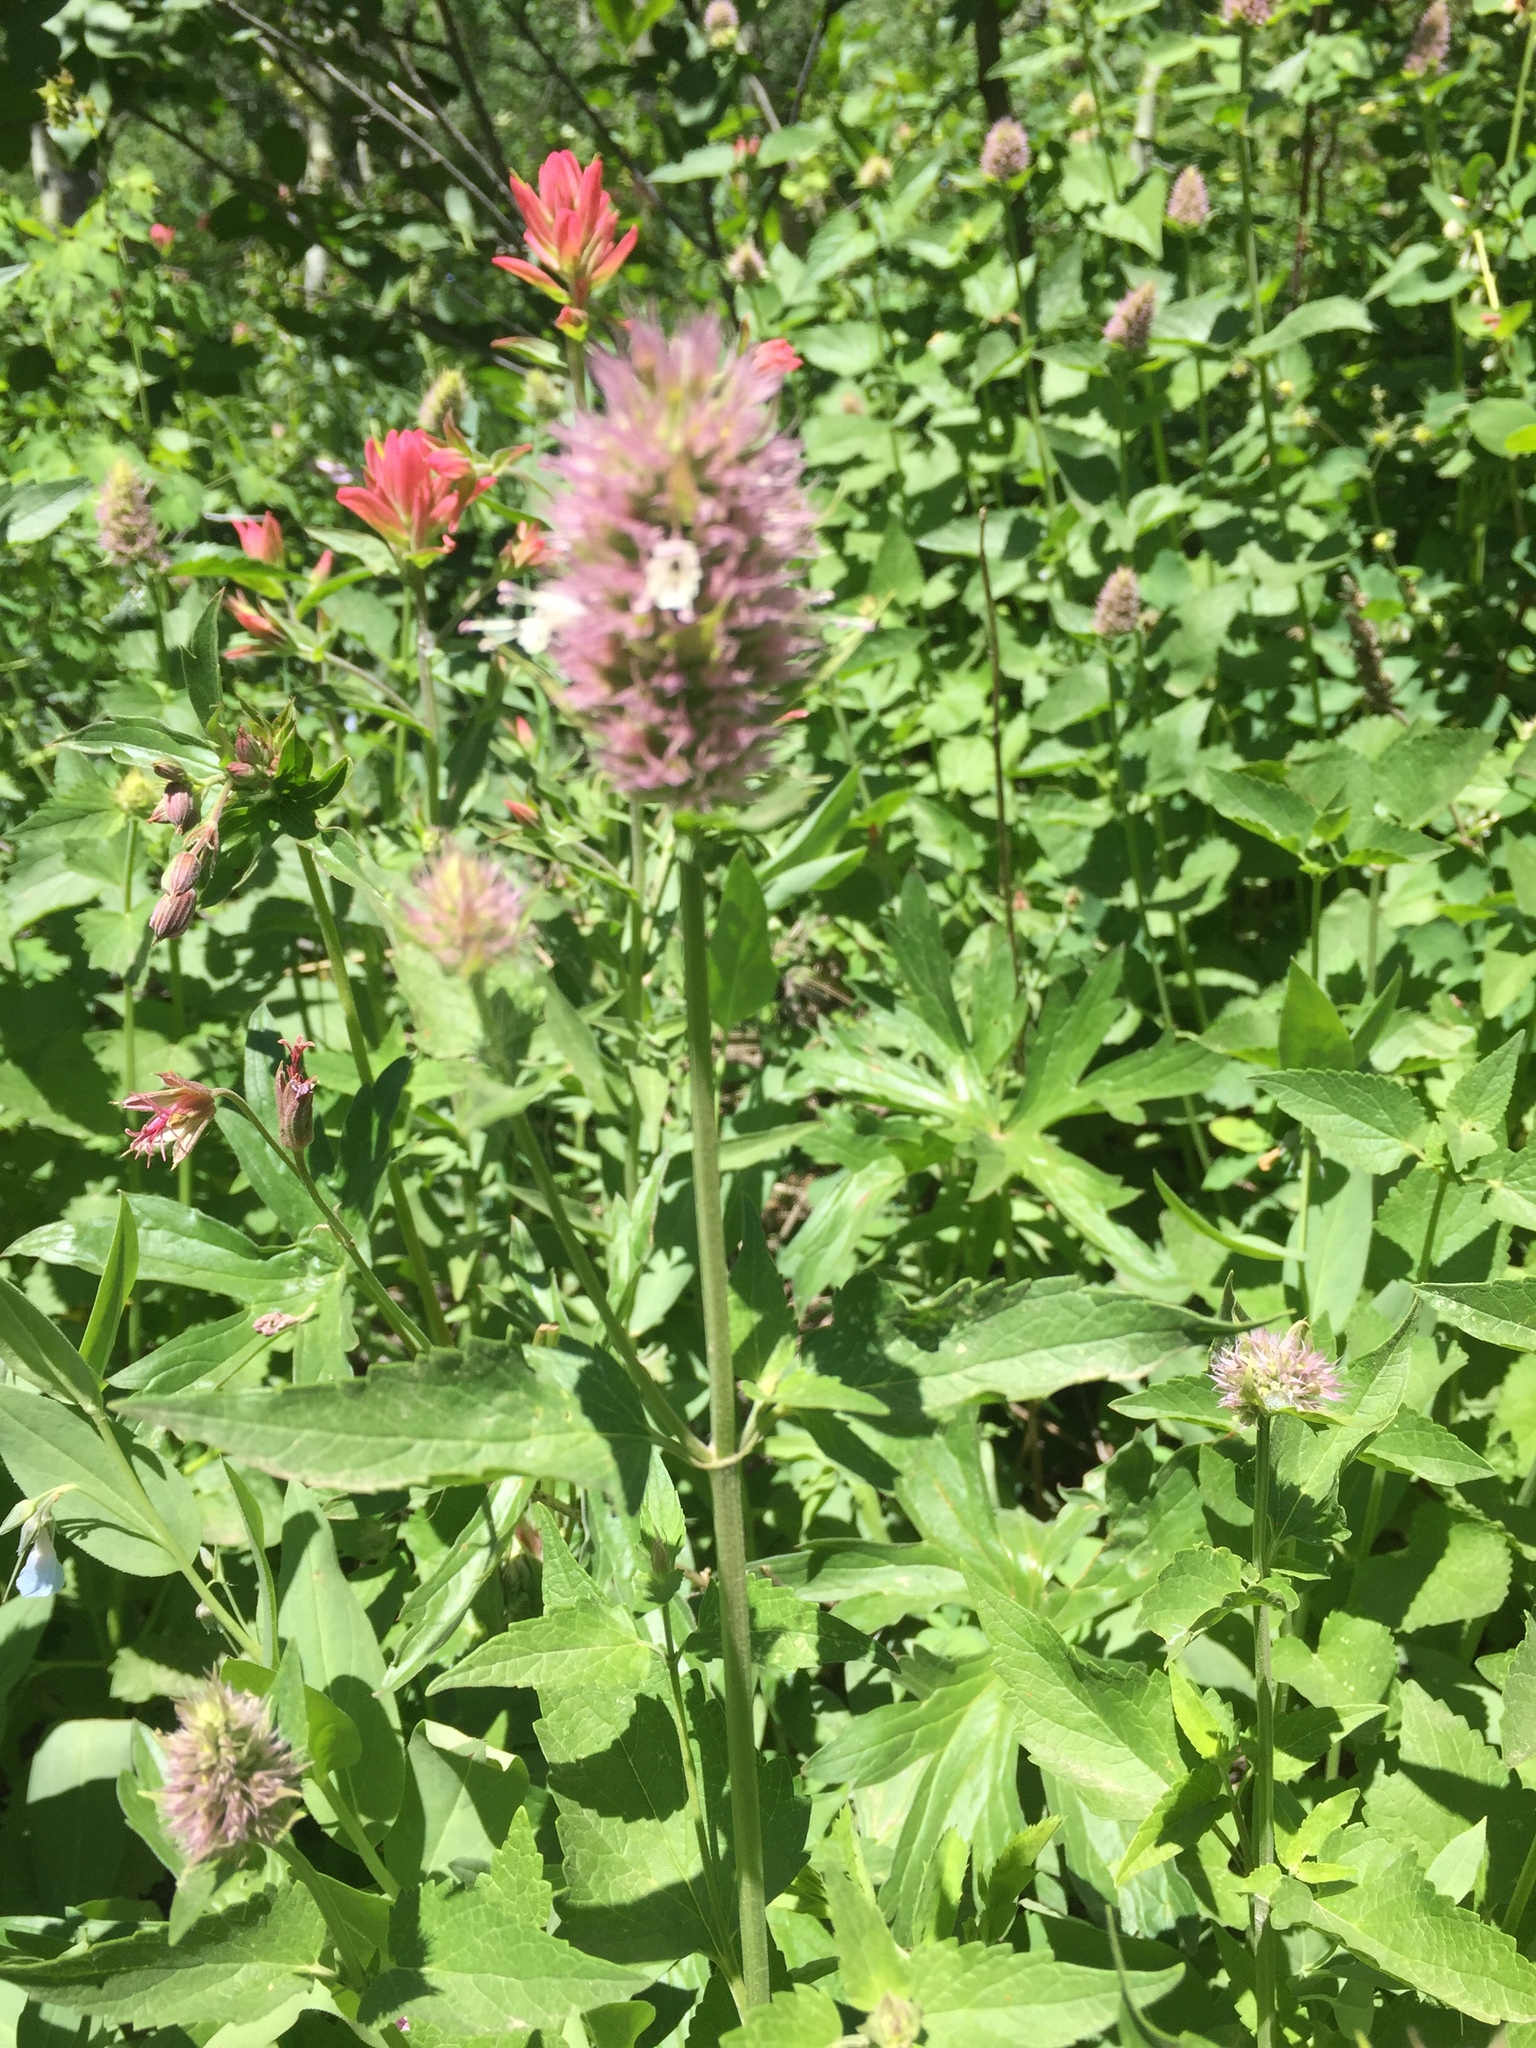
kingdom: Plantae
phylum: Tracheophyta
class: Magnoliopsida
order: Lamiales
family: Lamiaceae
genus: Agastache
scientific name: Agastache urticifolia
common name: Horsemint giant hyssop
